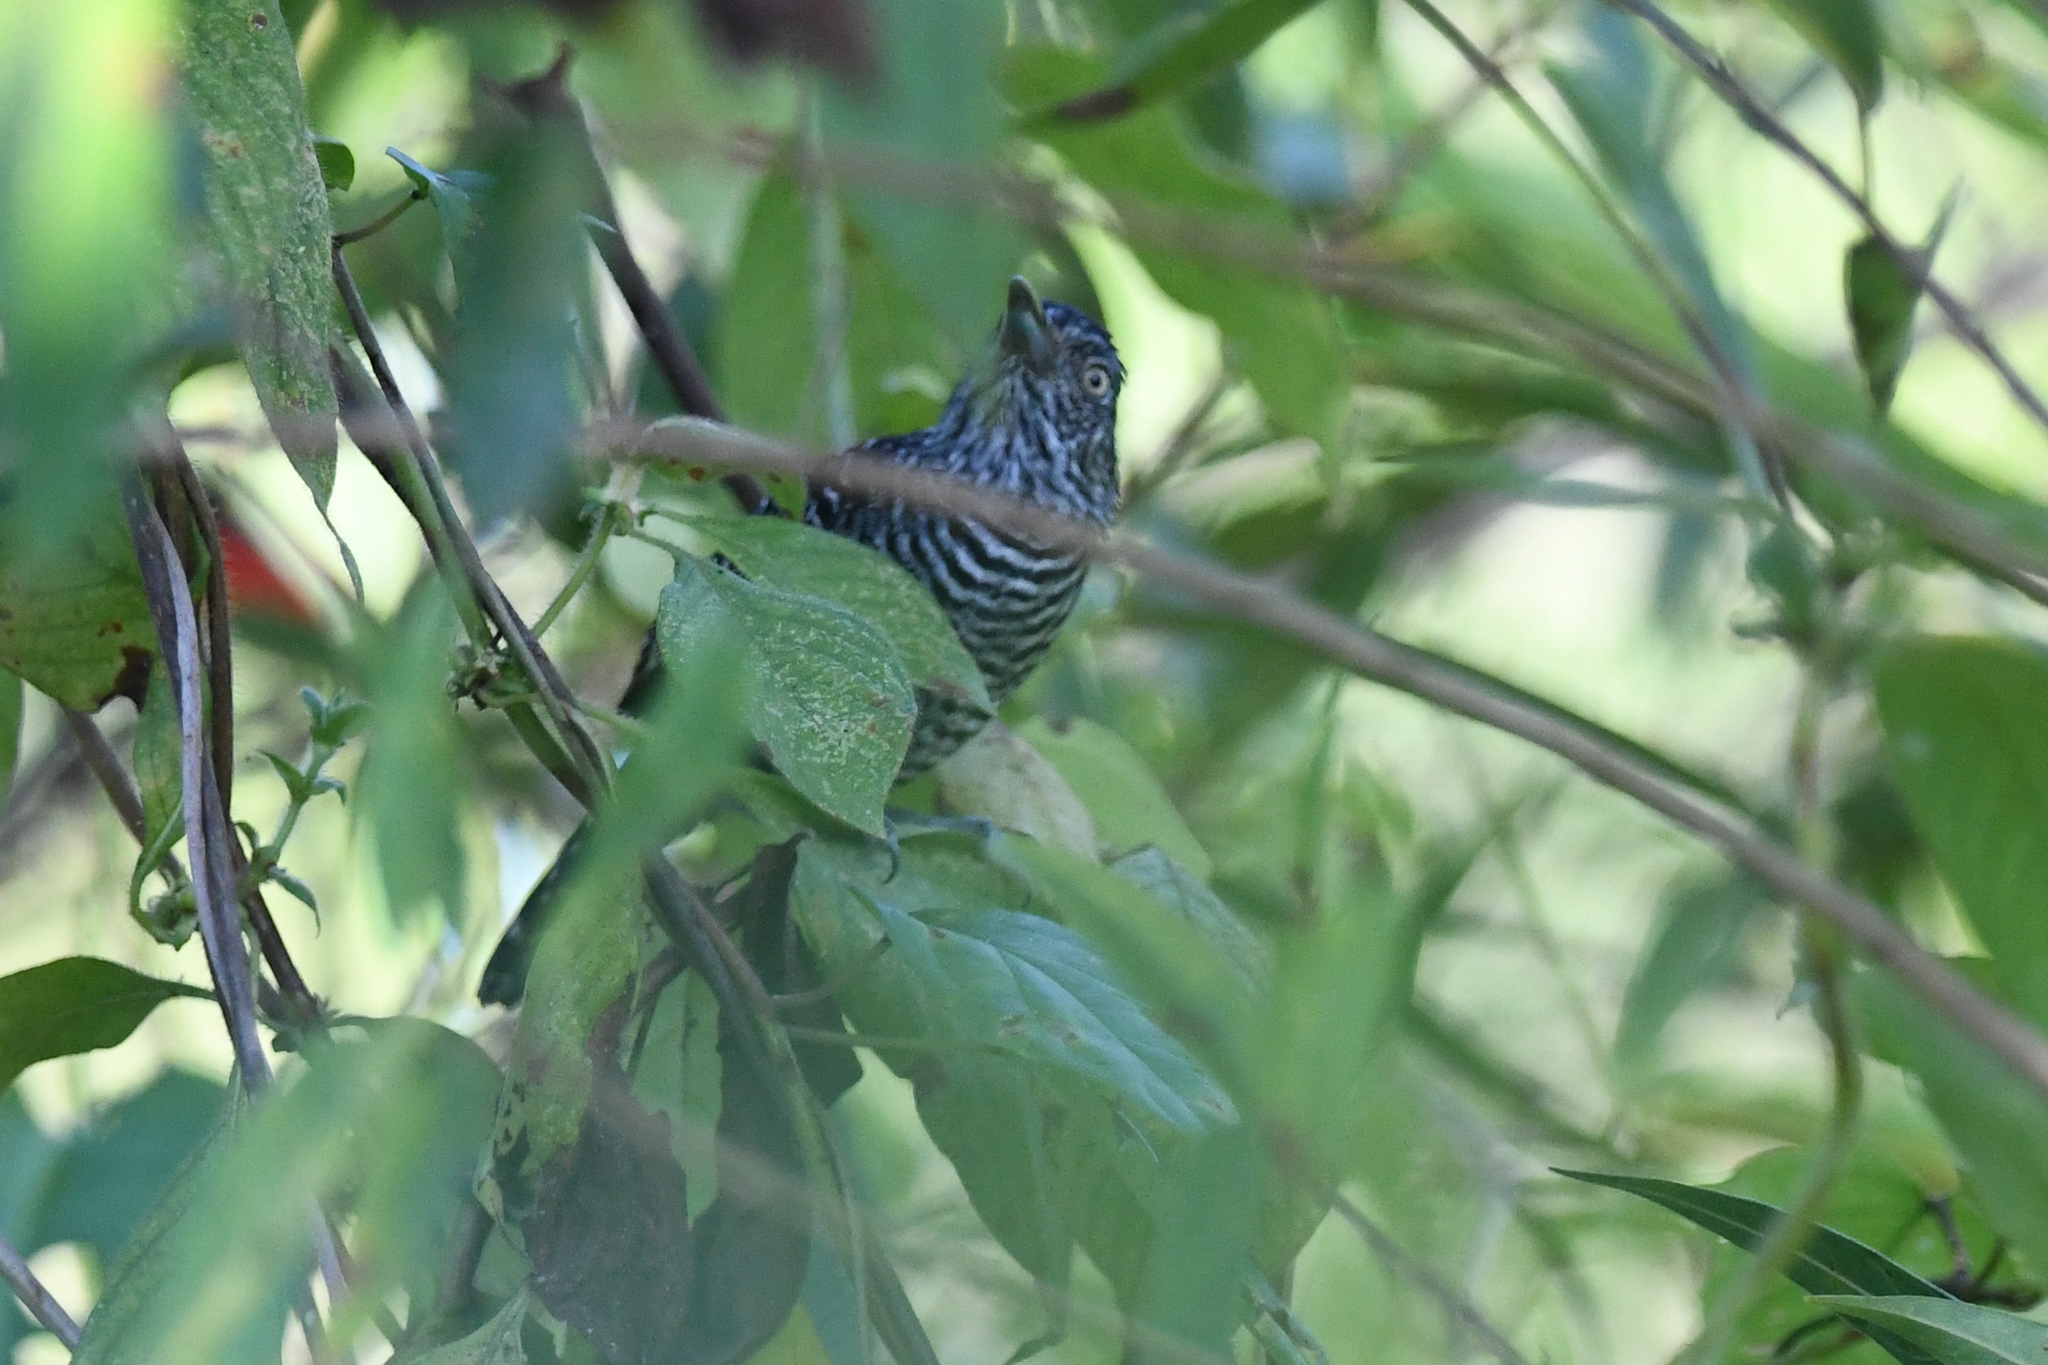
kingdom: Animalia
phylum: Chordata
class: Aves
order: Passeriformes
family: Thamnophilidae
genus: Thamnophilus
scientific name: Thamnophilus doliatus
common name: Barred antshrike
